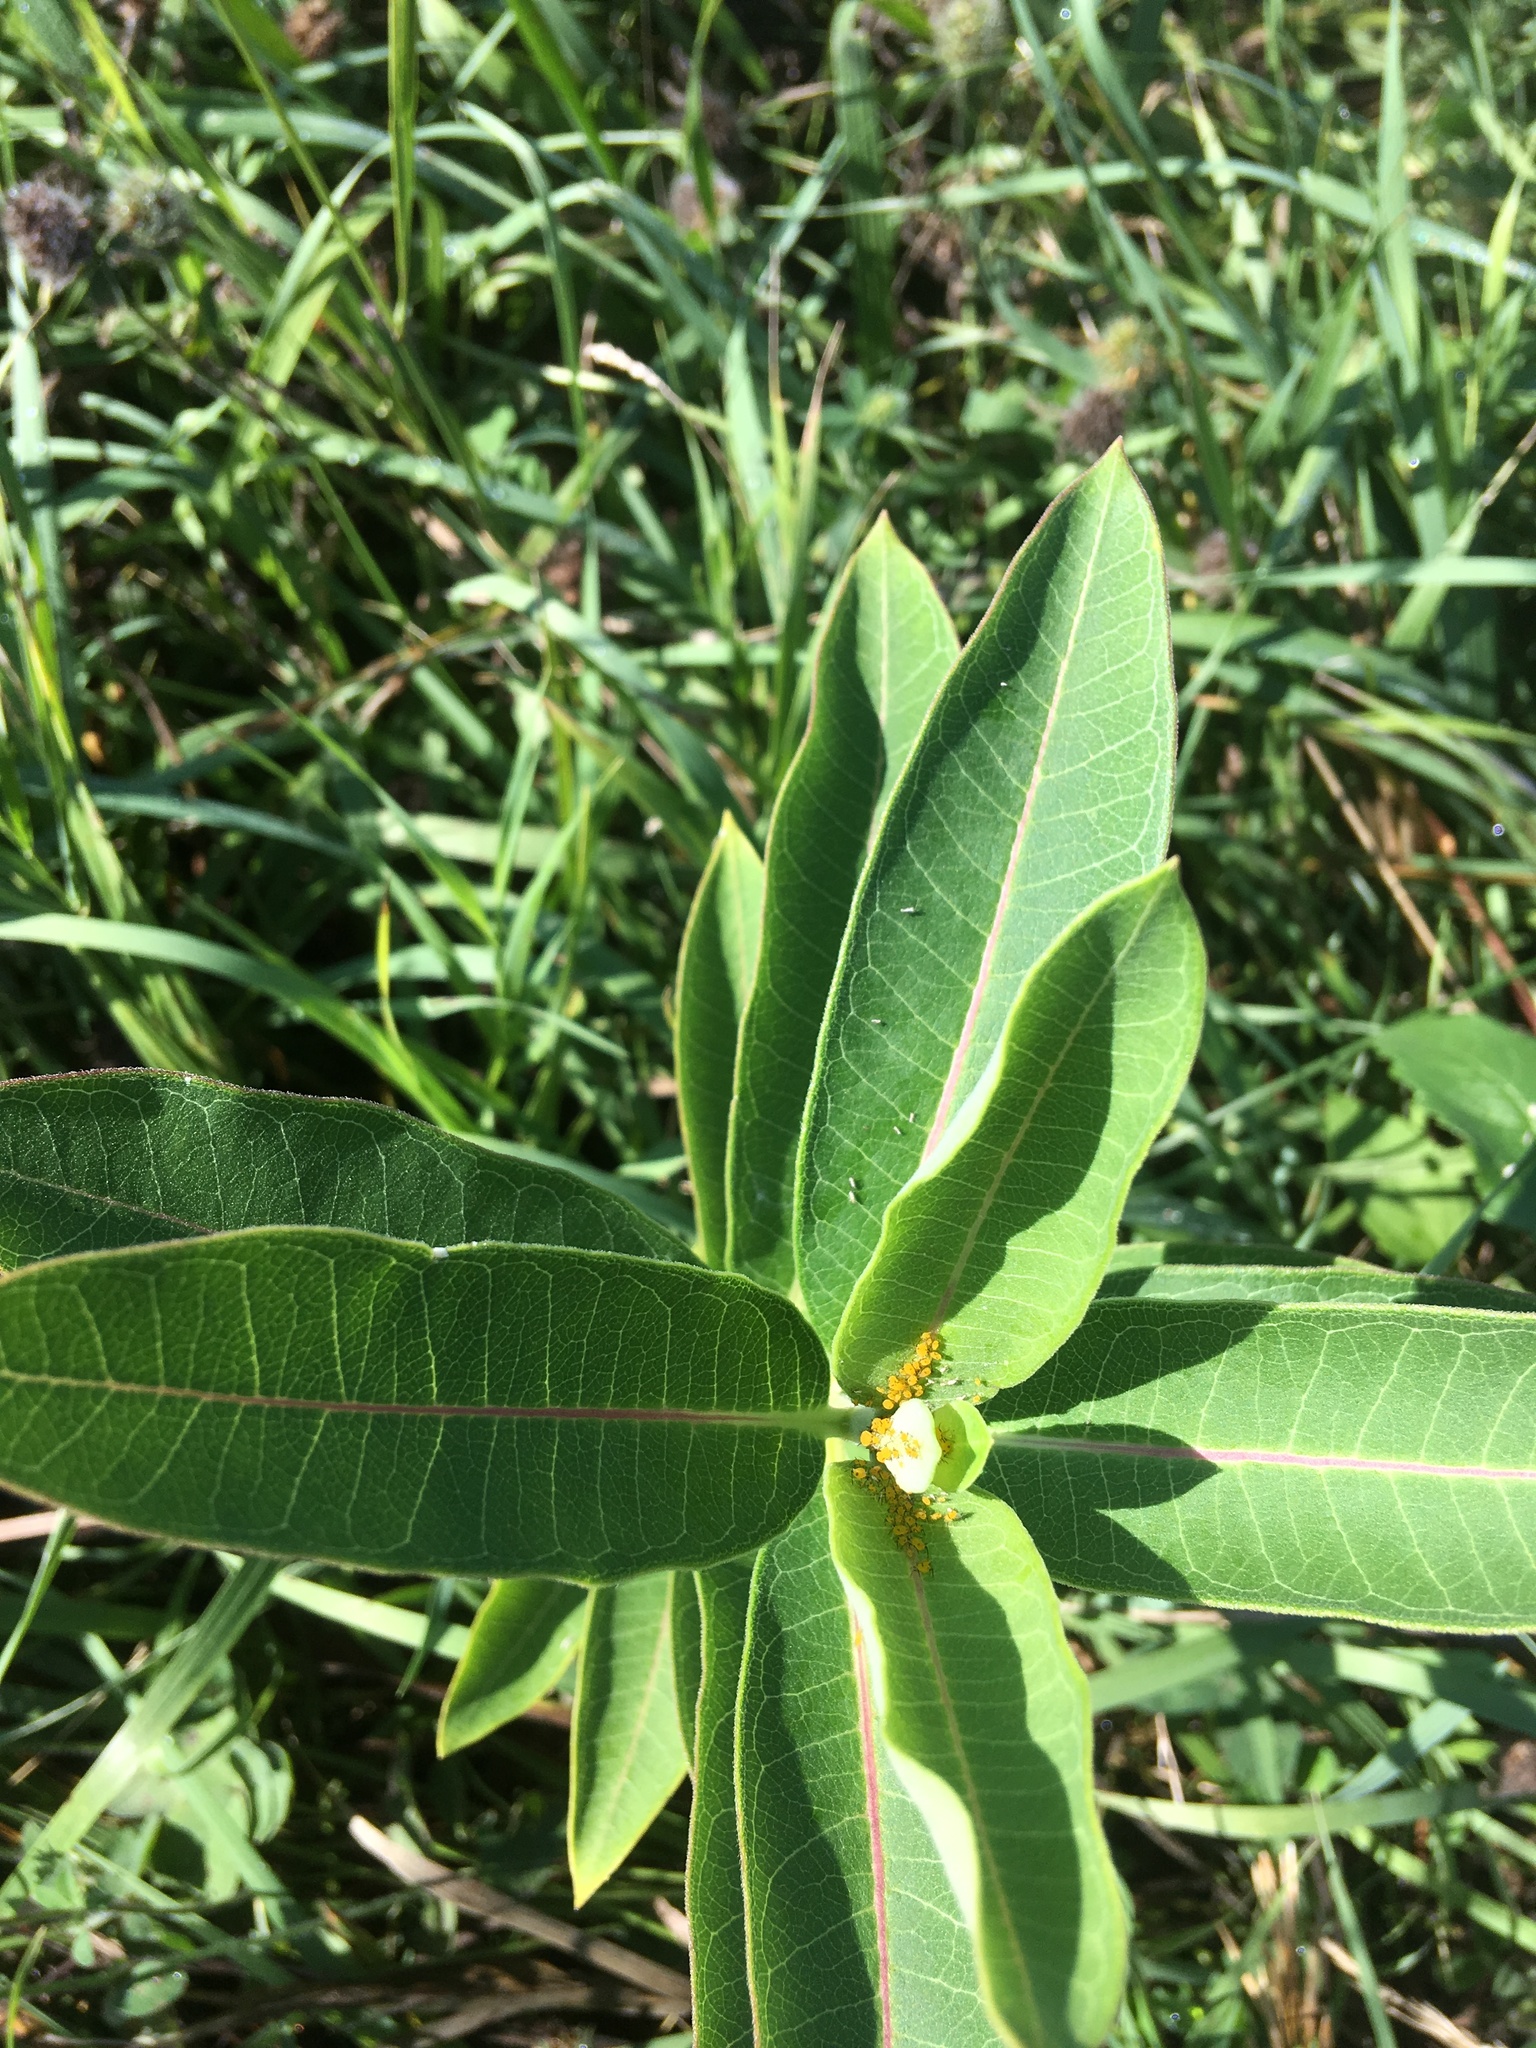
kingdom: Animalia
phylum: Arthropoda
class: Insecta
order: Hemiptera
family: Aphididae
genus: Aphis
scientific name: Aphis nerii
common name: Oleander aphid
